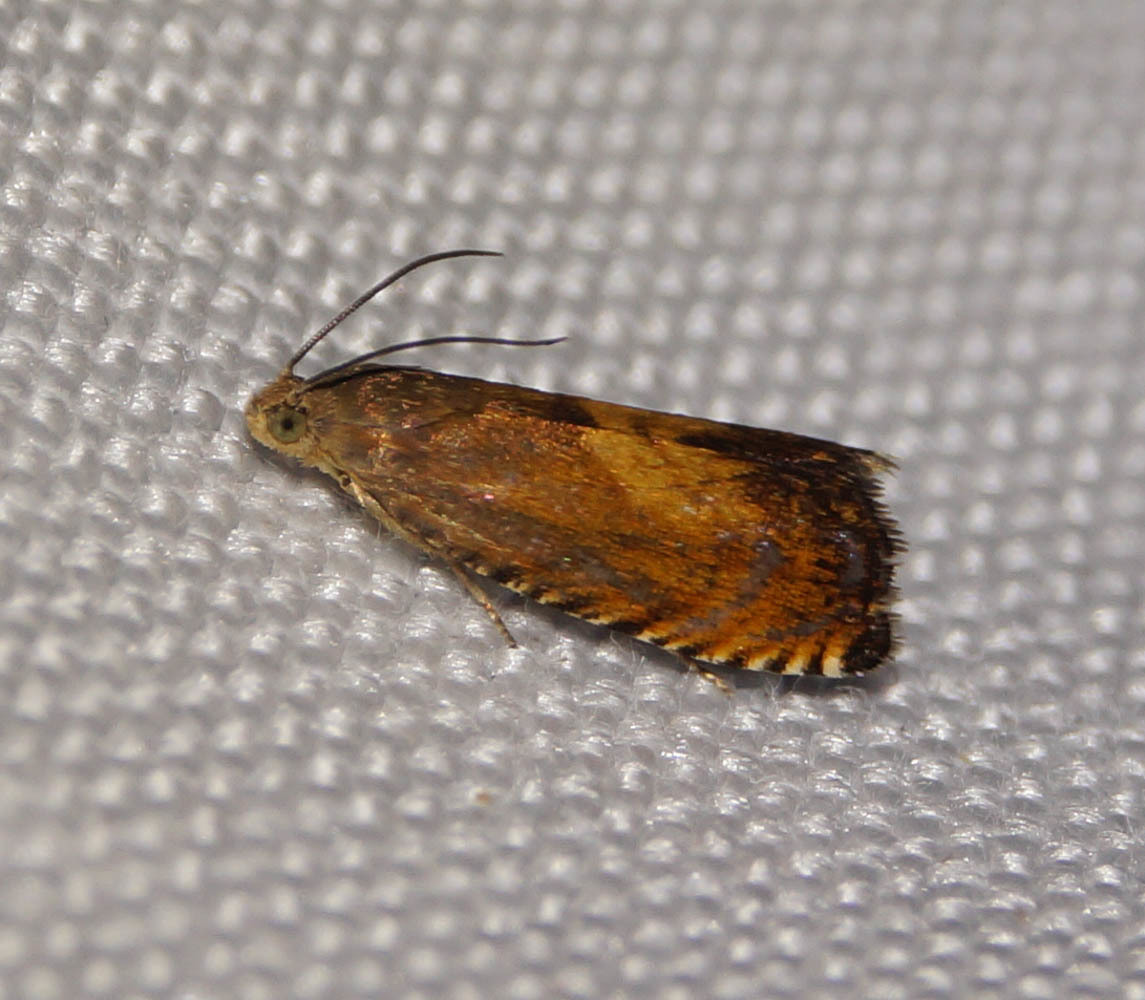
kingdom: Animalia
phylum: Arthropoda
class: Insecta
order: Lepidoptera
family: Tortricidae
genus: Pammene
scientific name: Pammene aurita
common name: Sycamore piercer
